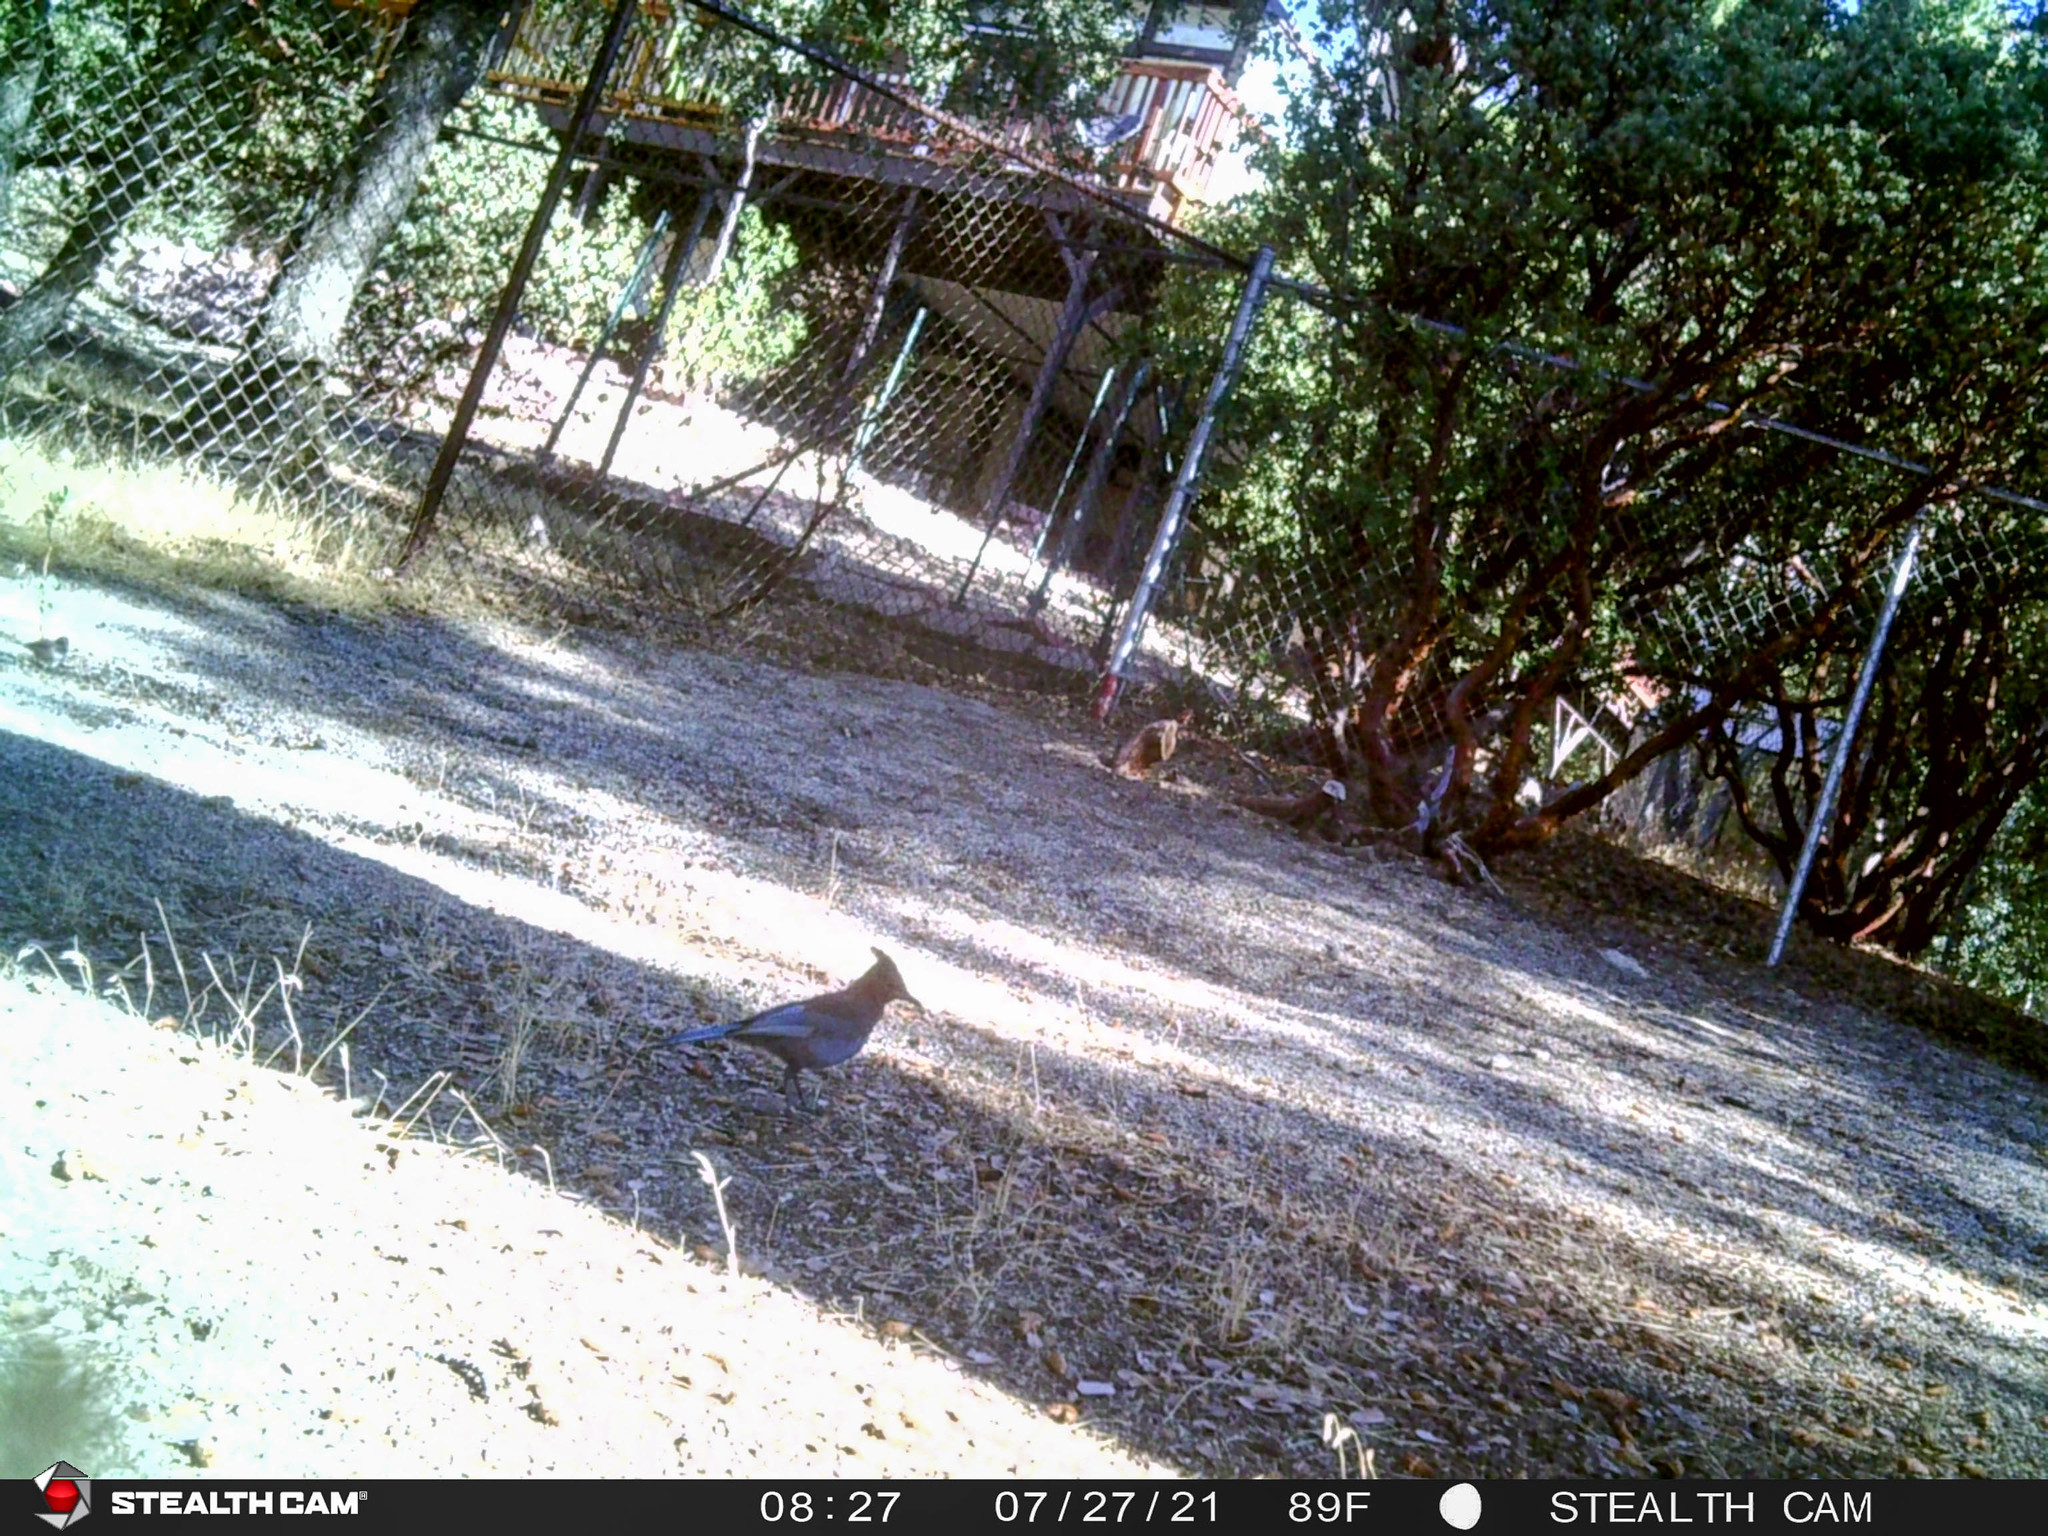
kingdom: Animalia
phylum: Chordata
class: Aves
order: Passeriformes
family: Corvidae
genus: Cyanocitta
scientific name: Cyanocitta stelleri
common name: Steller's jay
